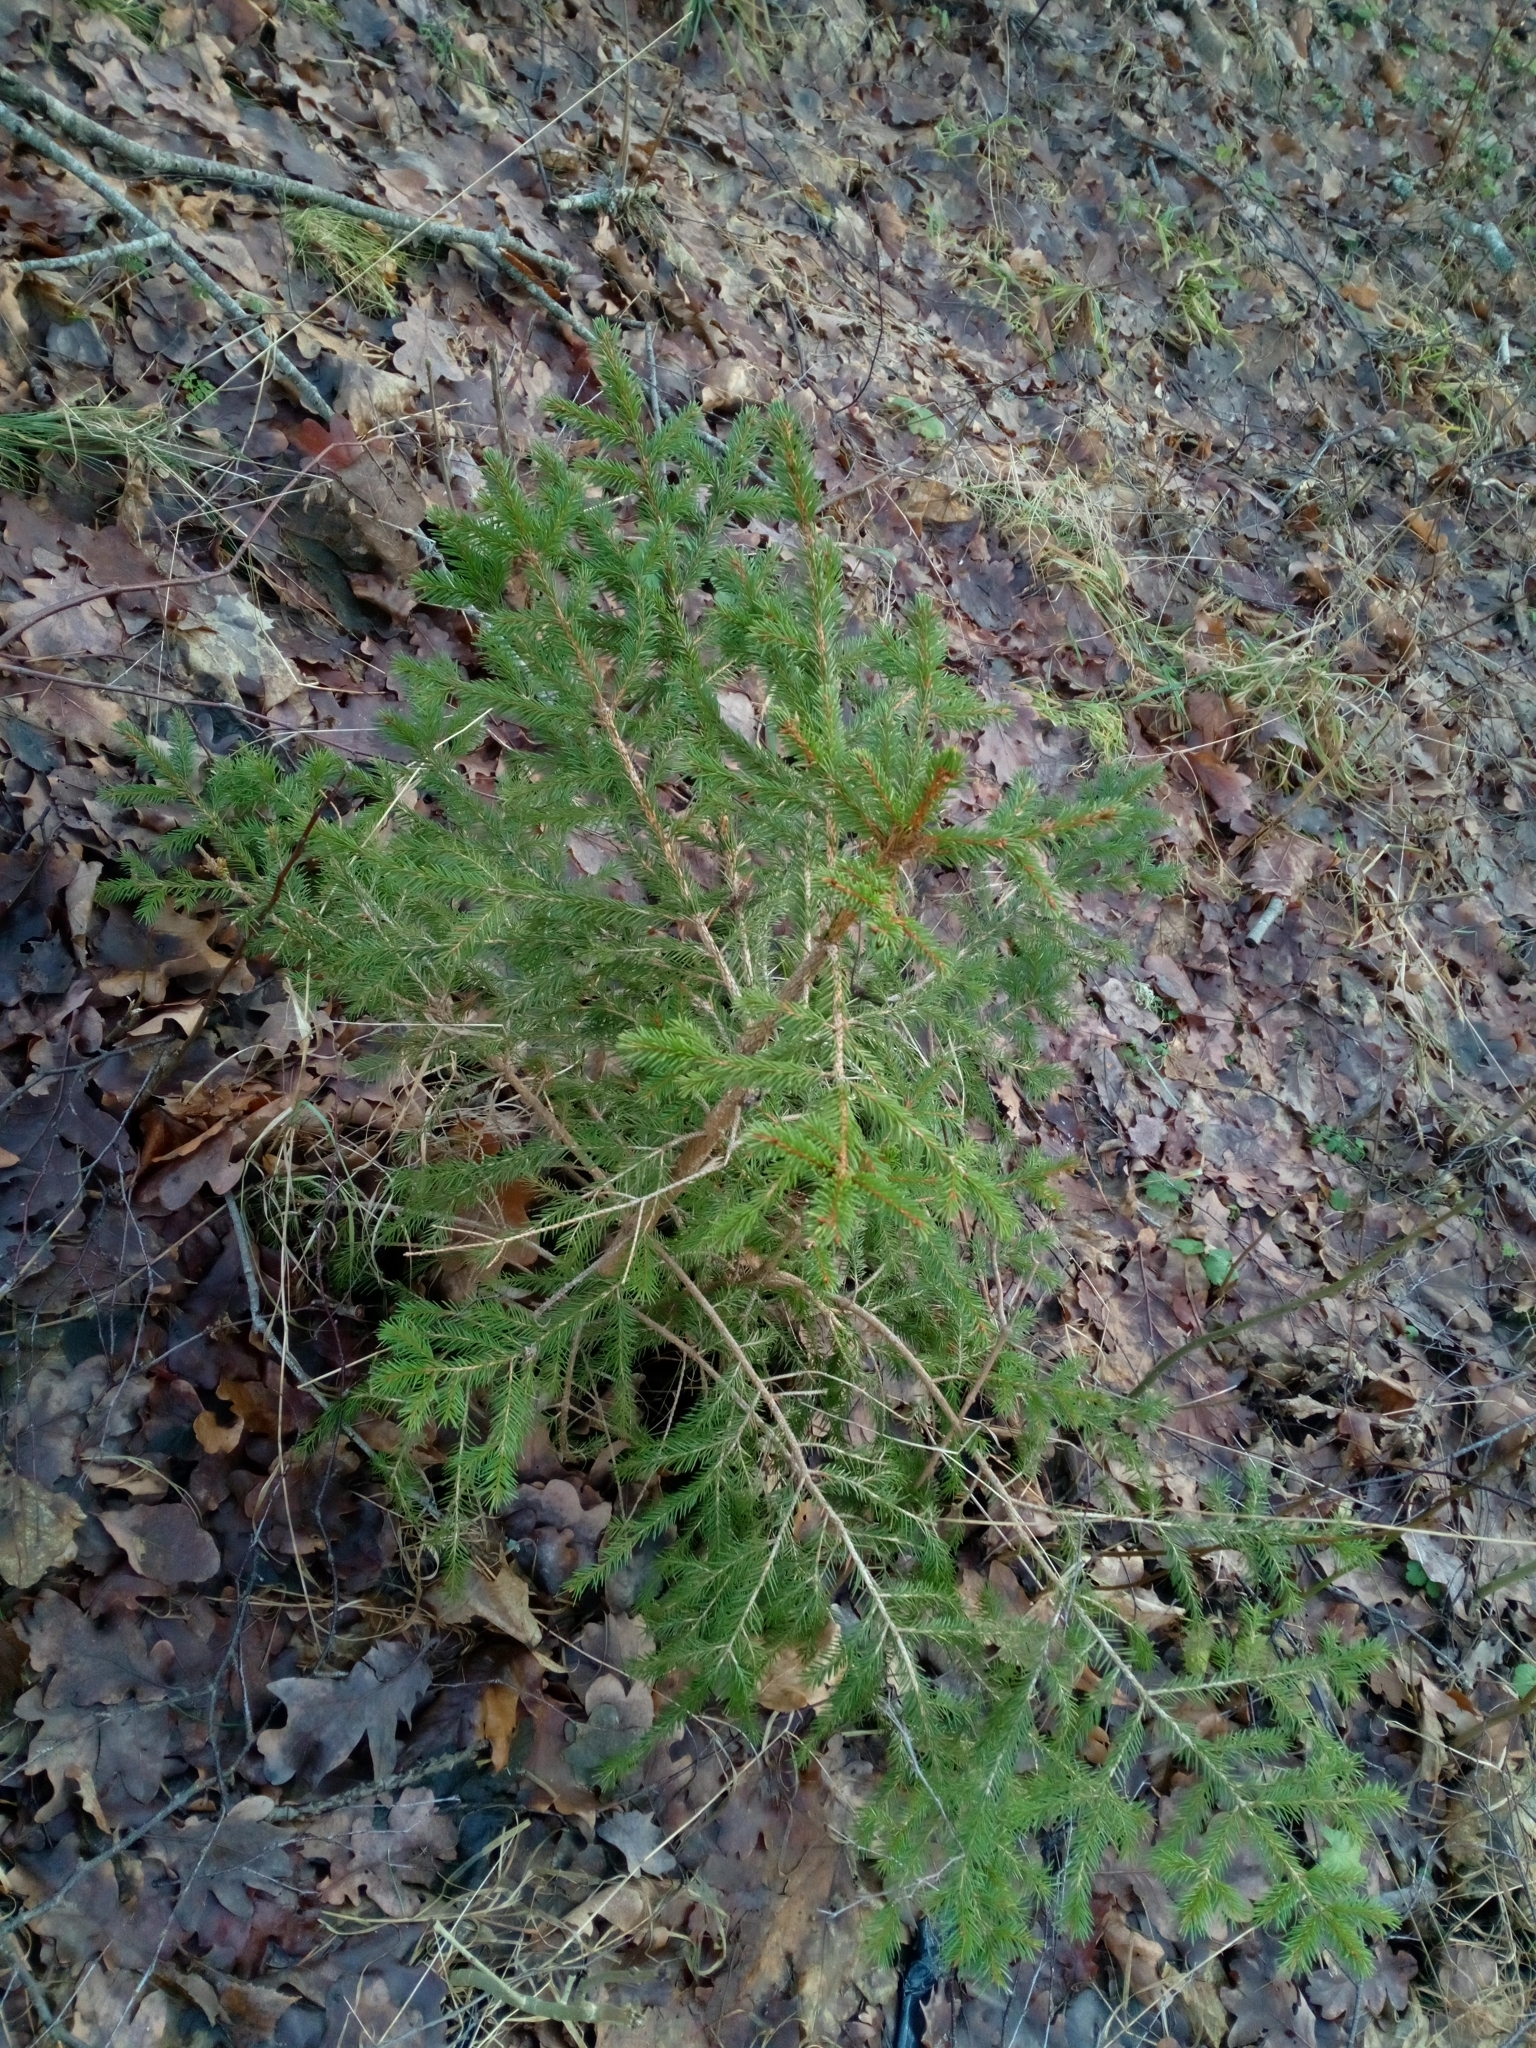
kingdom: Plantae
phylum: Tracheophyta
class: Pinopsida
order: Pinales
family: Pinaceae
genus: Picea
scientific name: Picea abies
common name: Norway spruce
